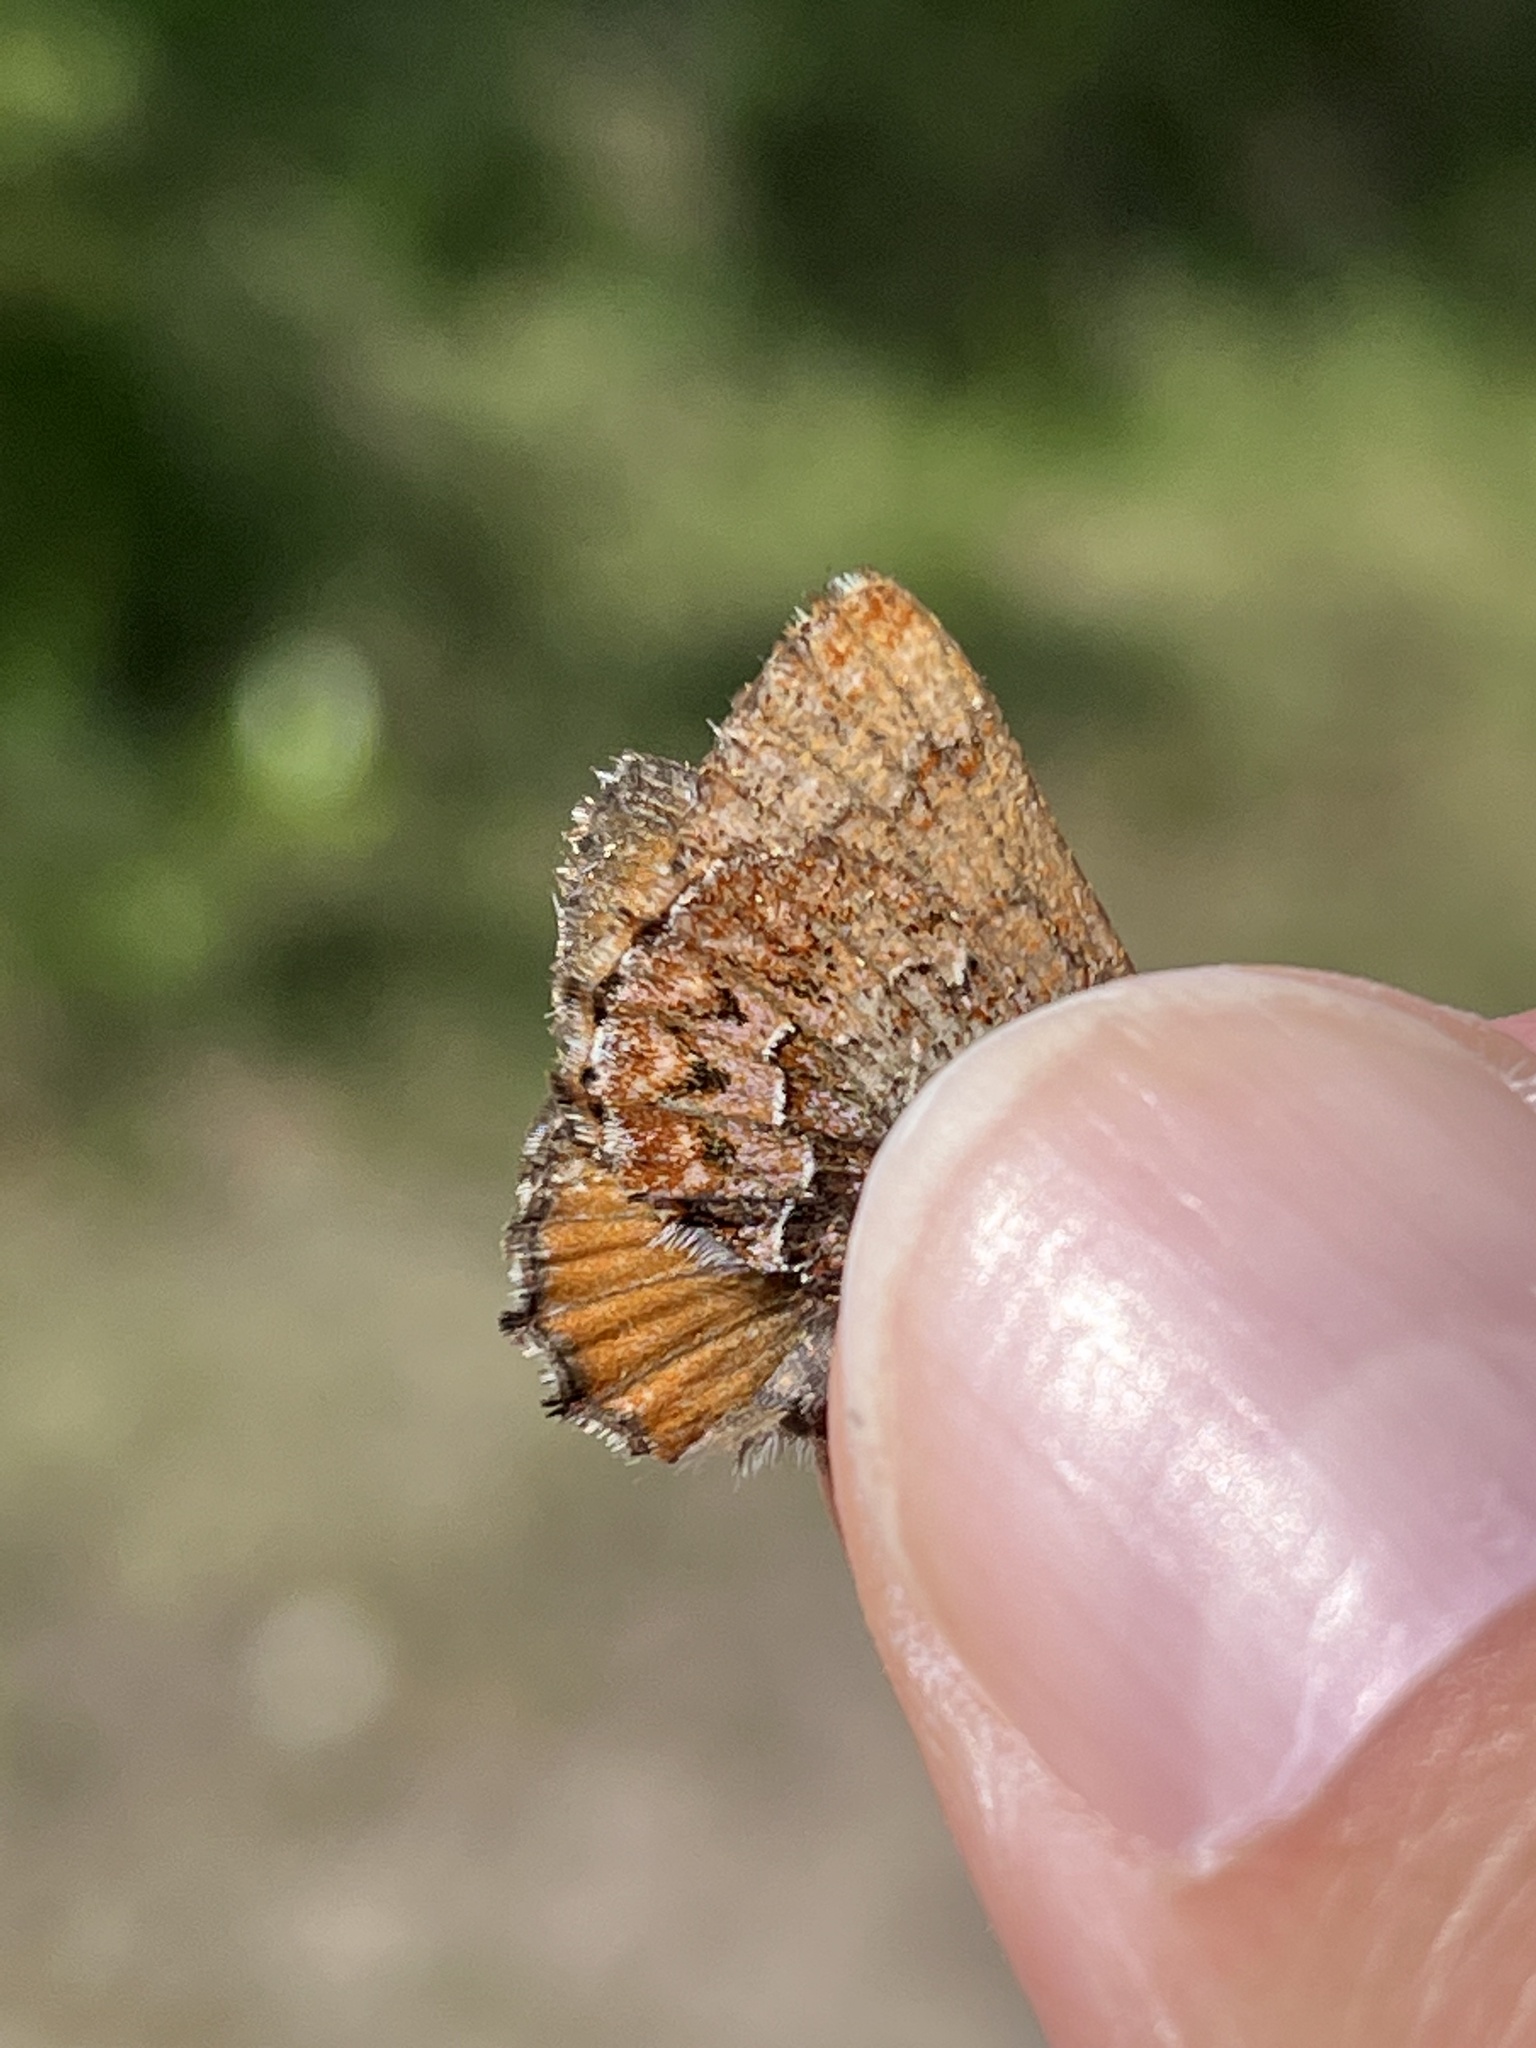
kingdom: Animalia
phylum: Arthropoda
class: Insecta
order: Lepidoptera
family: Lycaenidae
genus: Incisalia
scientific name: Incisalia eryphon
